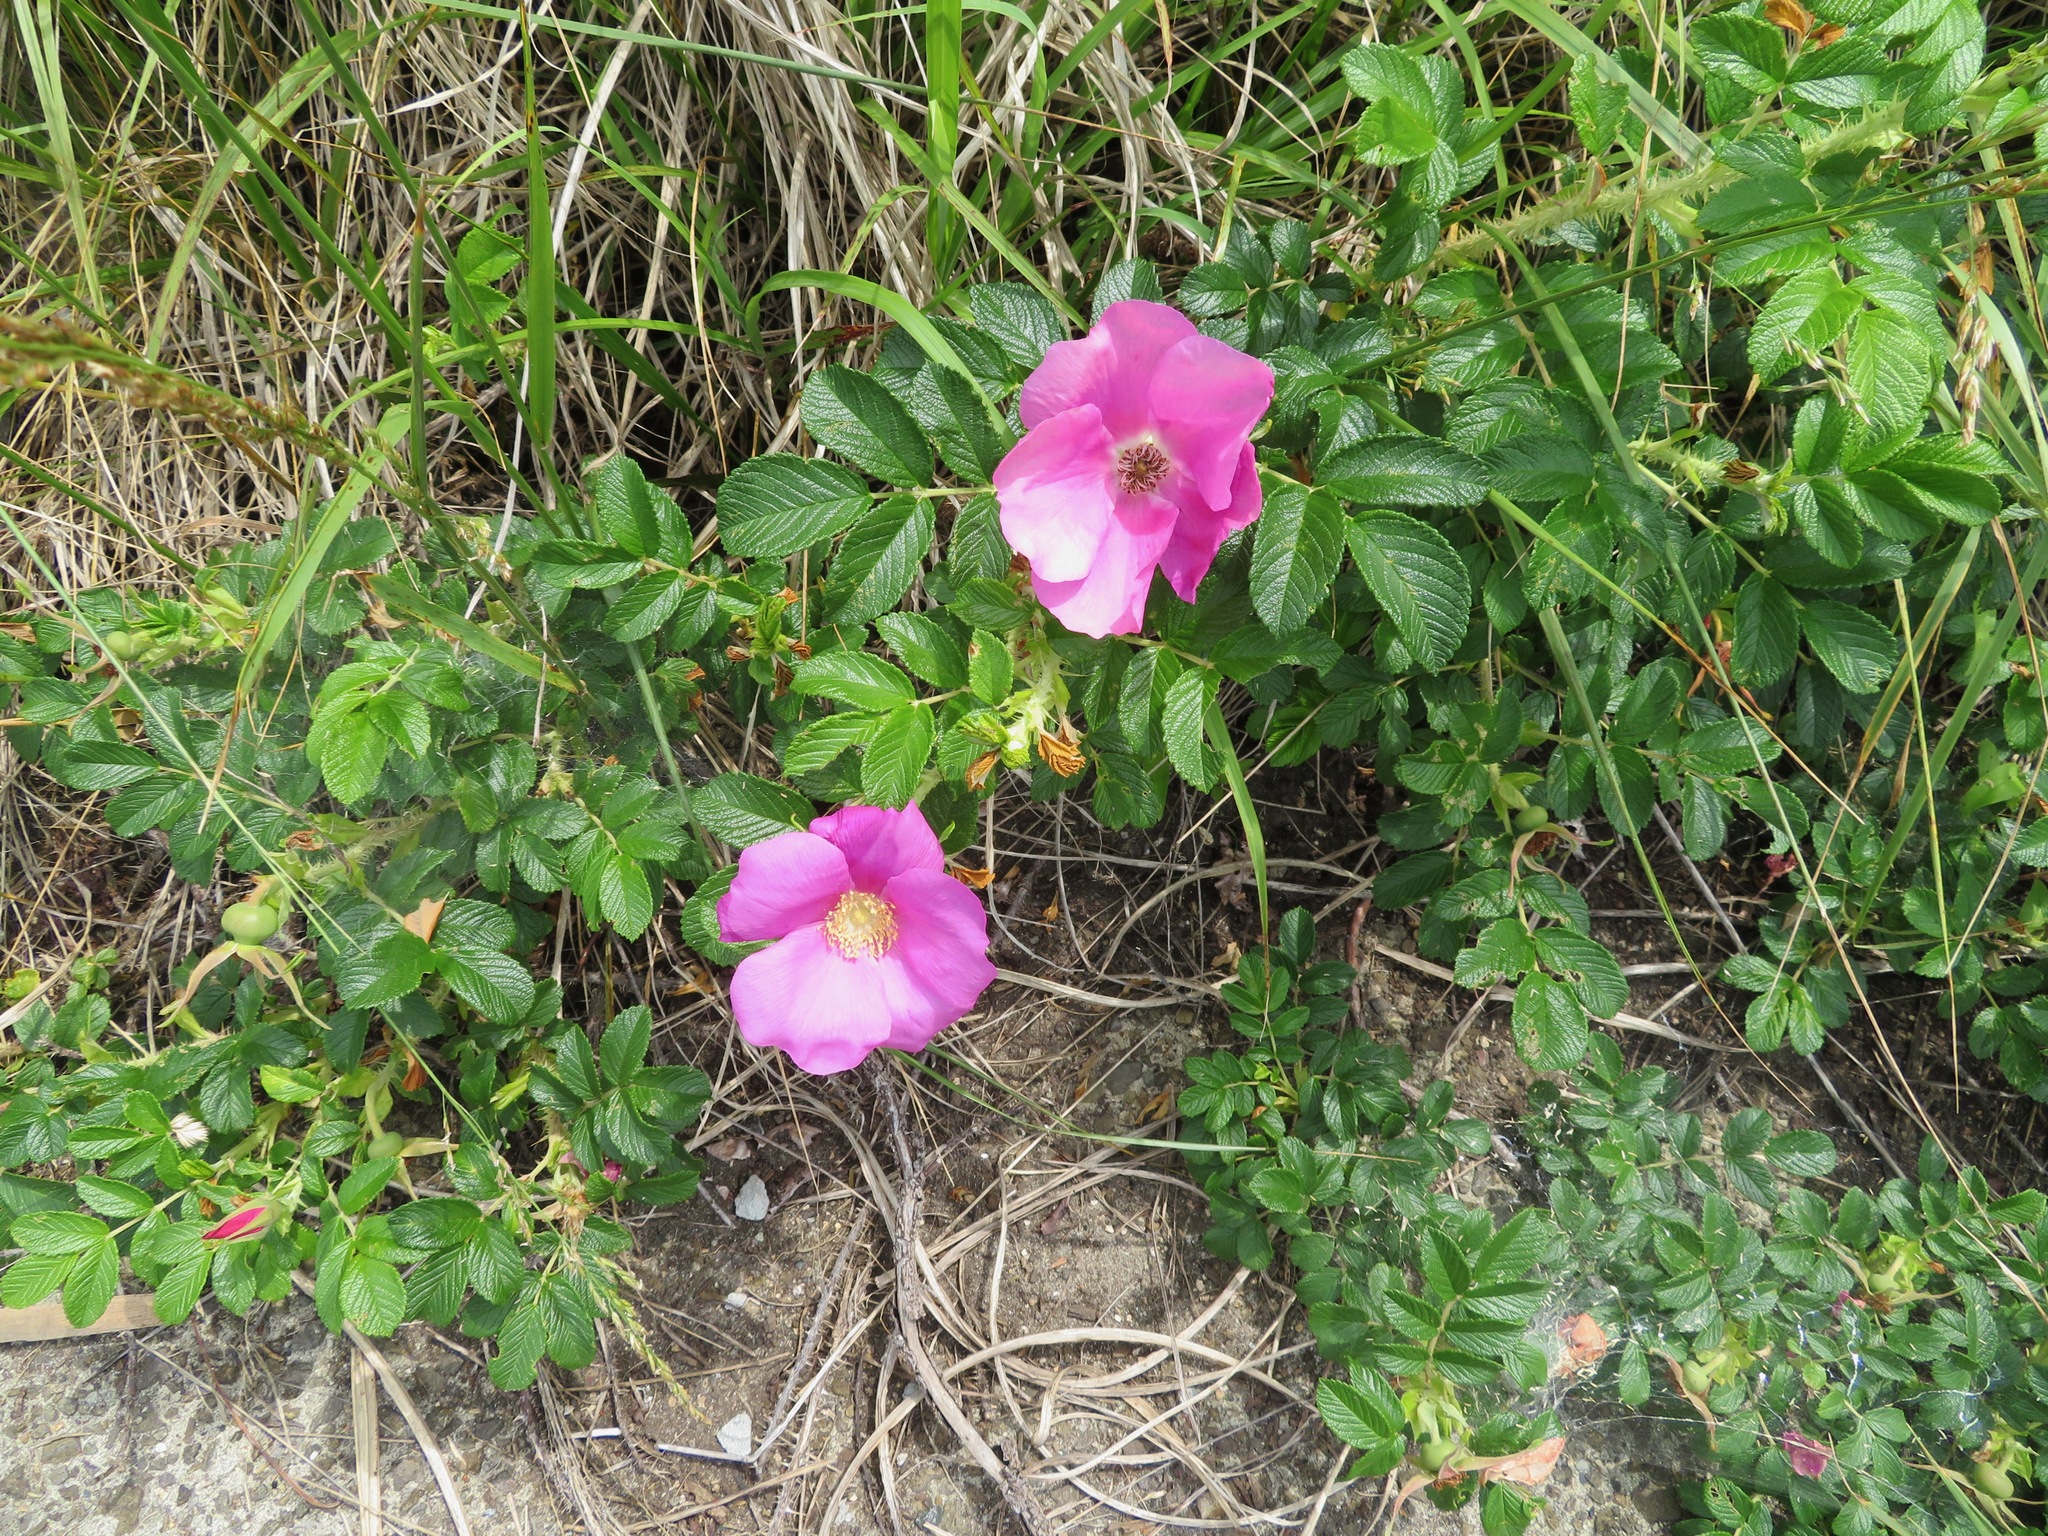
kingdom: Plantae
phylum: Tracheophyta
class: Magnoliopsida
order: Rosales
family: Rosaceae
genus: Rosa
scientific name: Rosa rugosa
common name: Japanese rose
